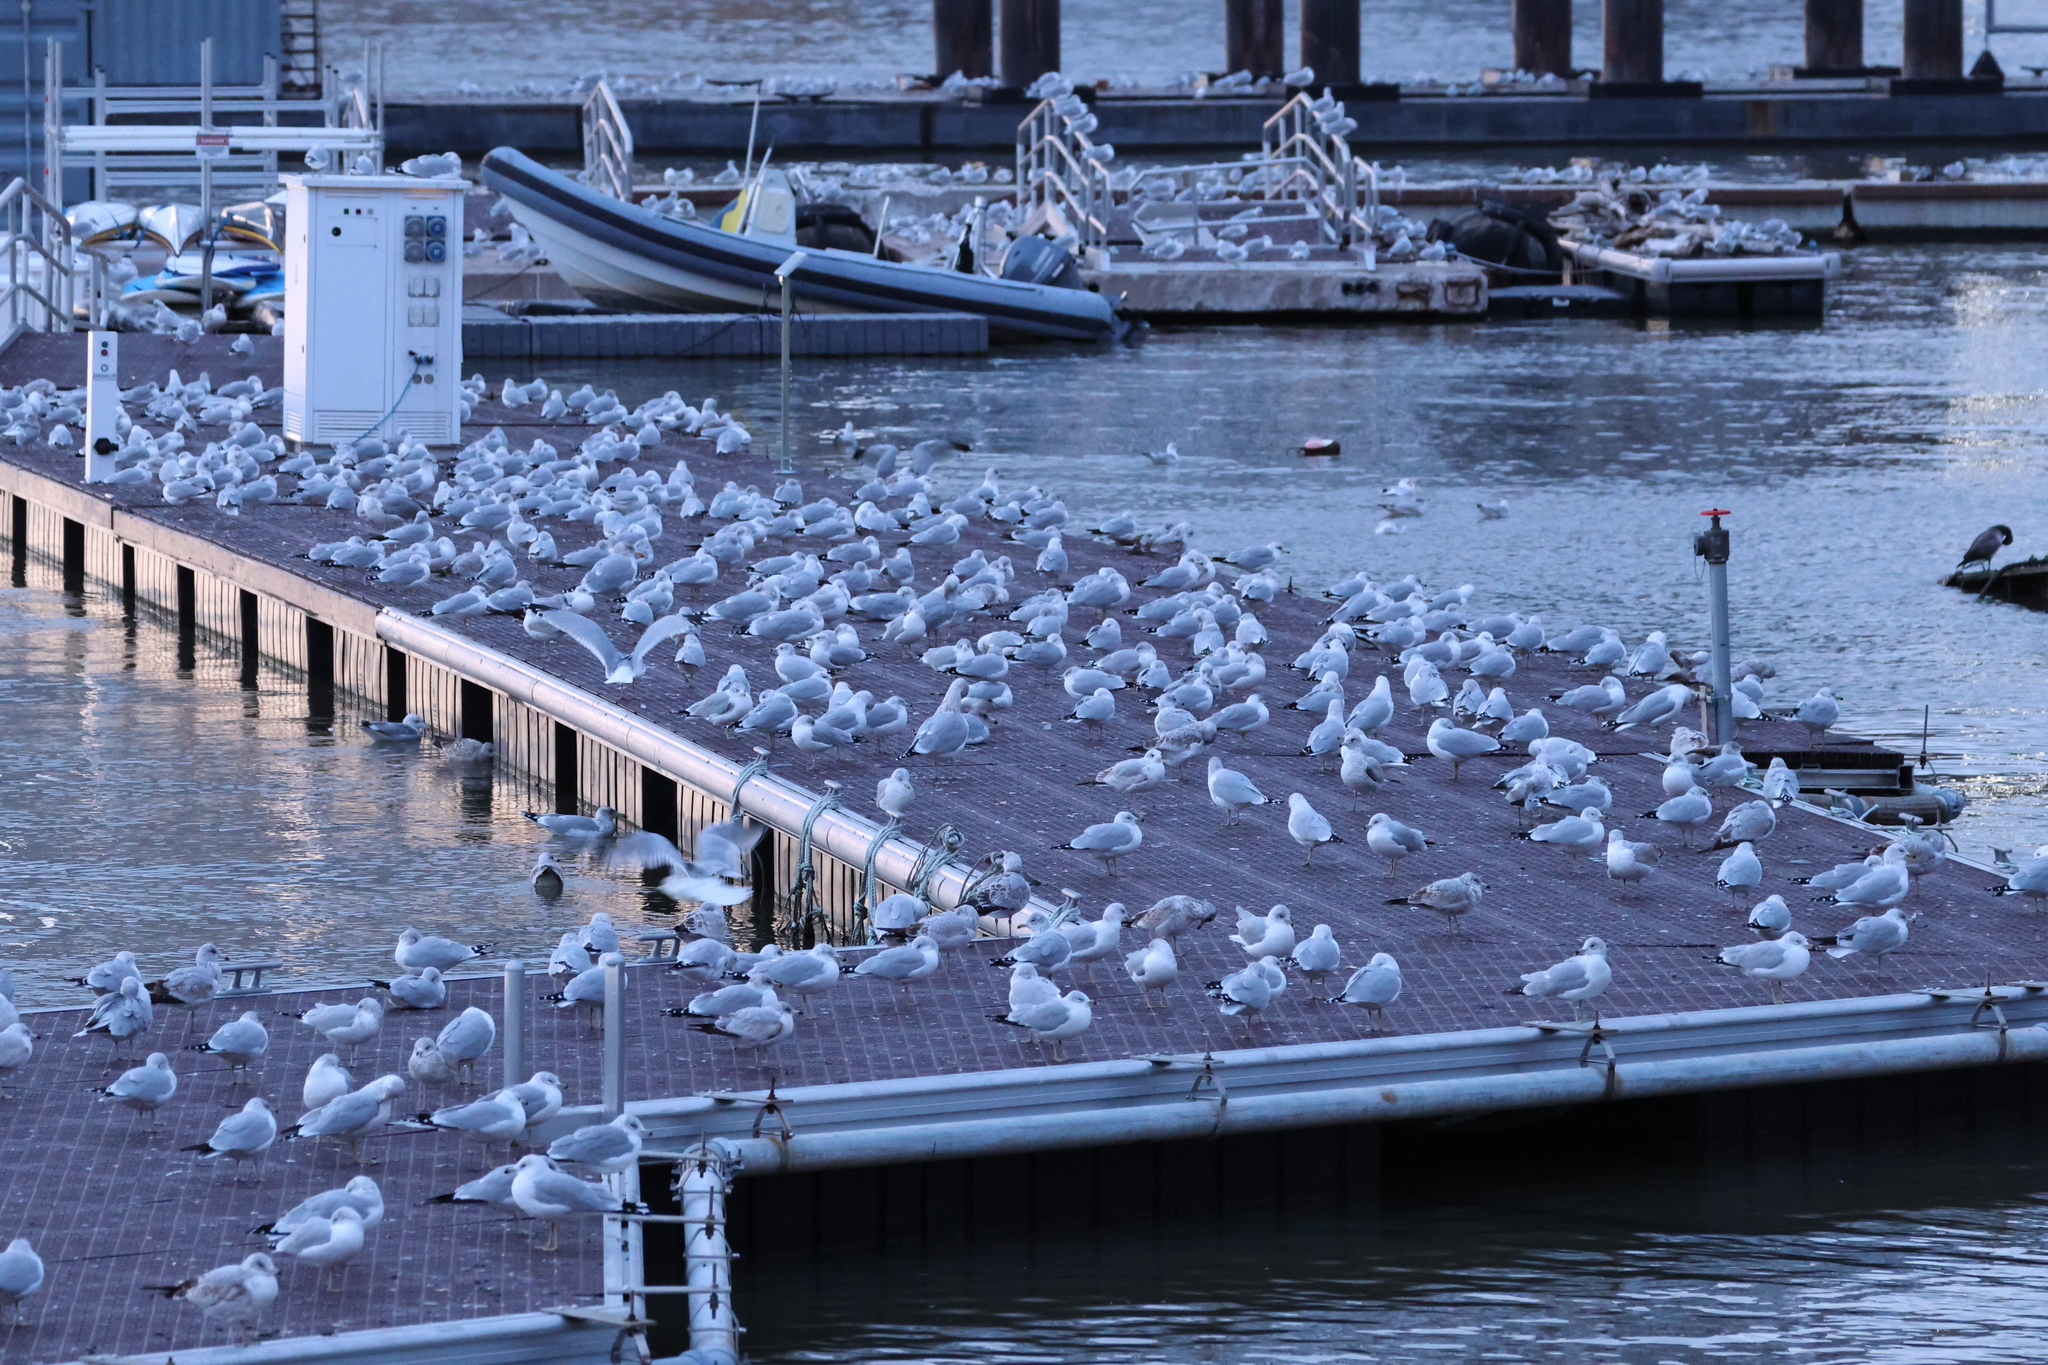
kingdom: Animalia
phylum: Chordata
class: Aves
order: Charadriiformes
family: Laridae
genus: Larus
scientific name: Larus delawarensis
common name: Ring-billed gull
